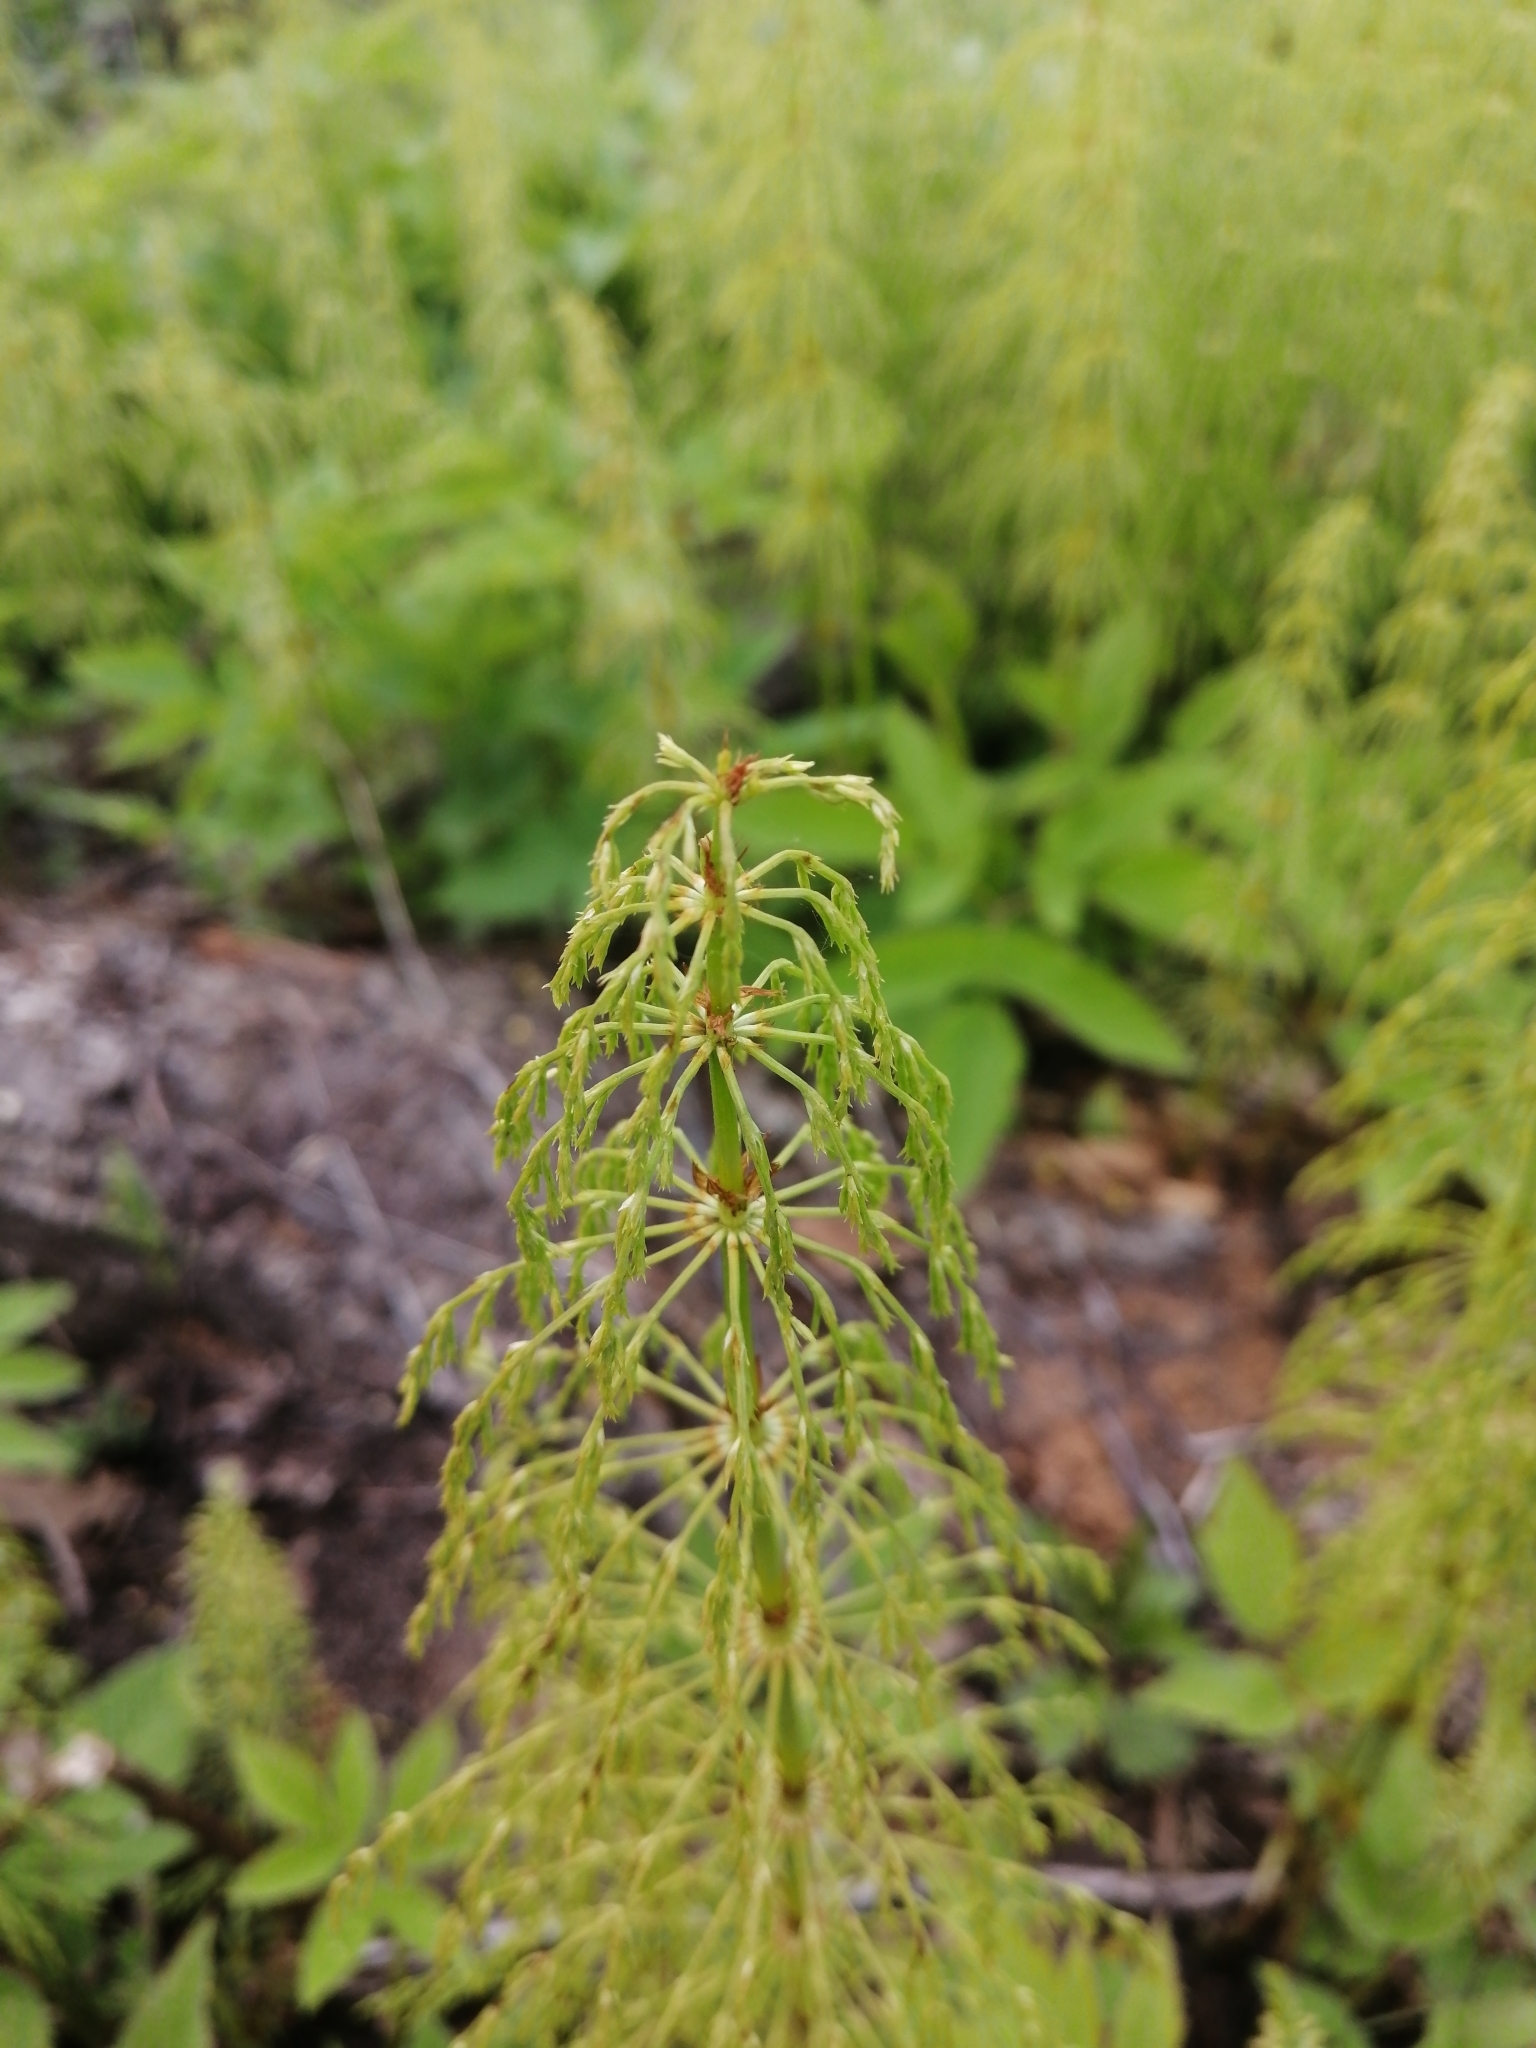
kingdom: Plantae
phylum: Tracheophyta
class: Polypodiopsida
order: Equisetales
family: Equisetaceae
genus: Equisetum
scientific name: Equisetum sylvaticum
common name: Wood horsetail
